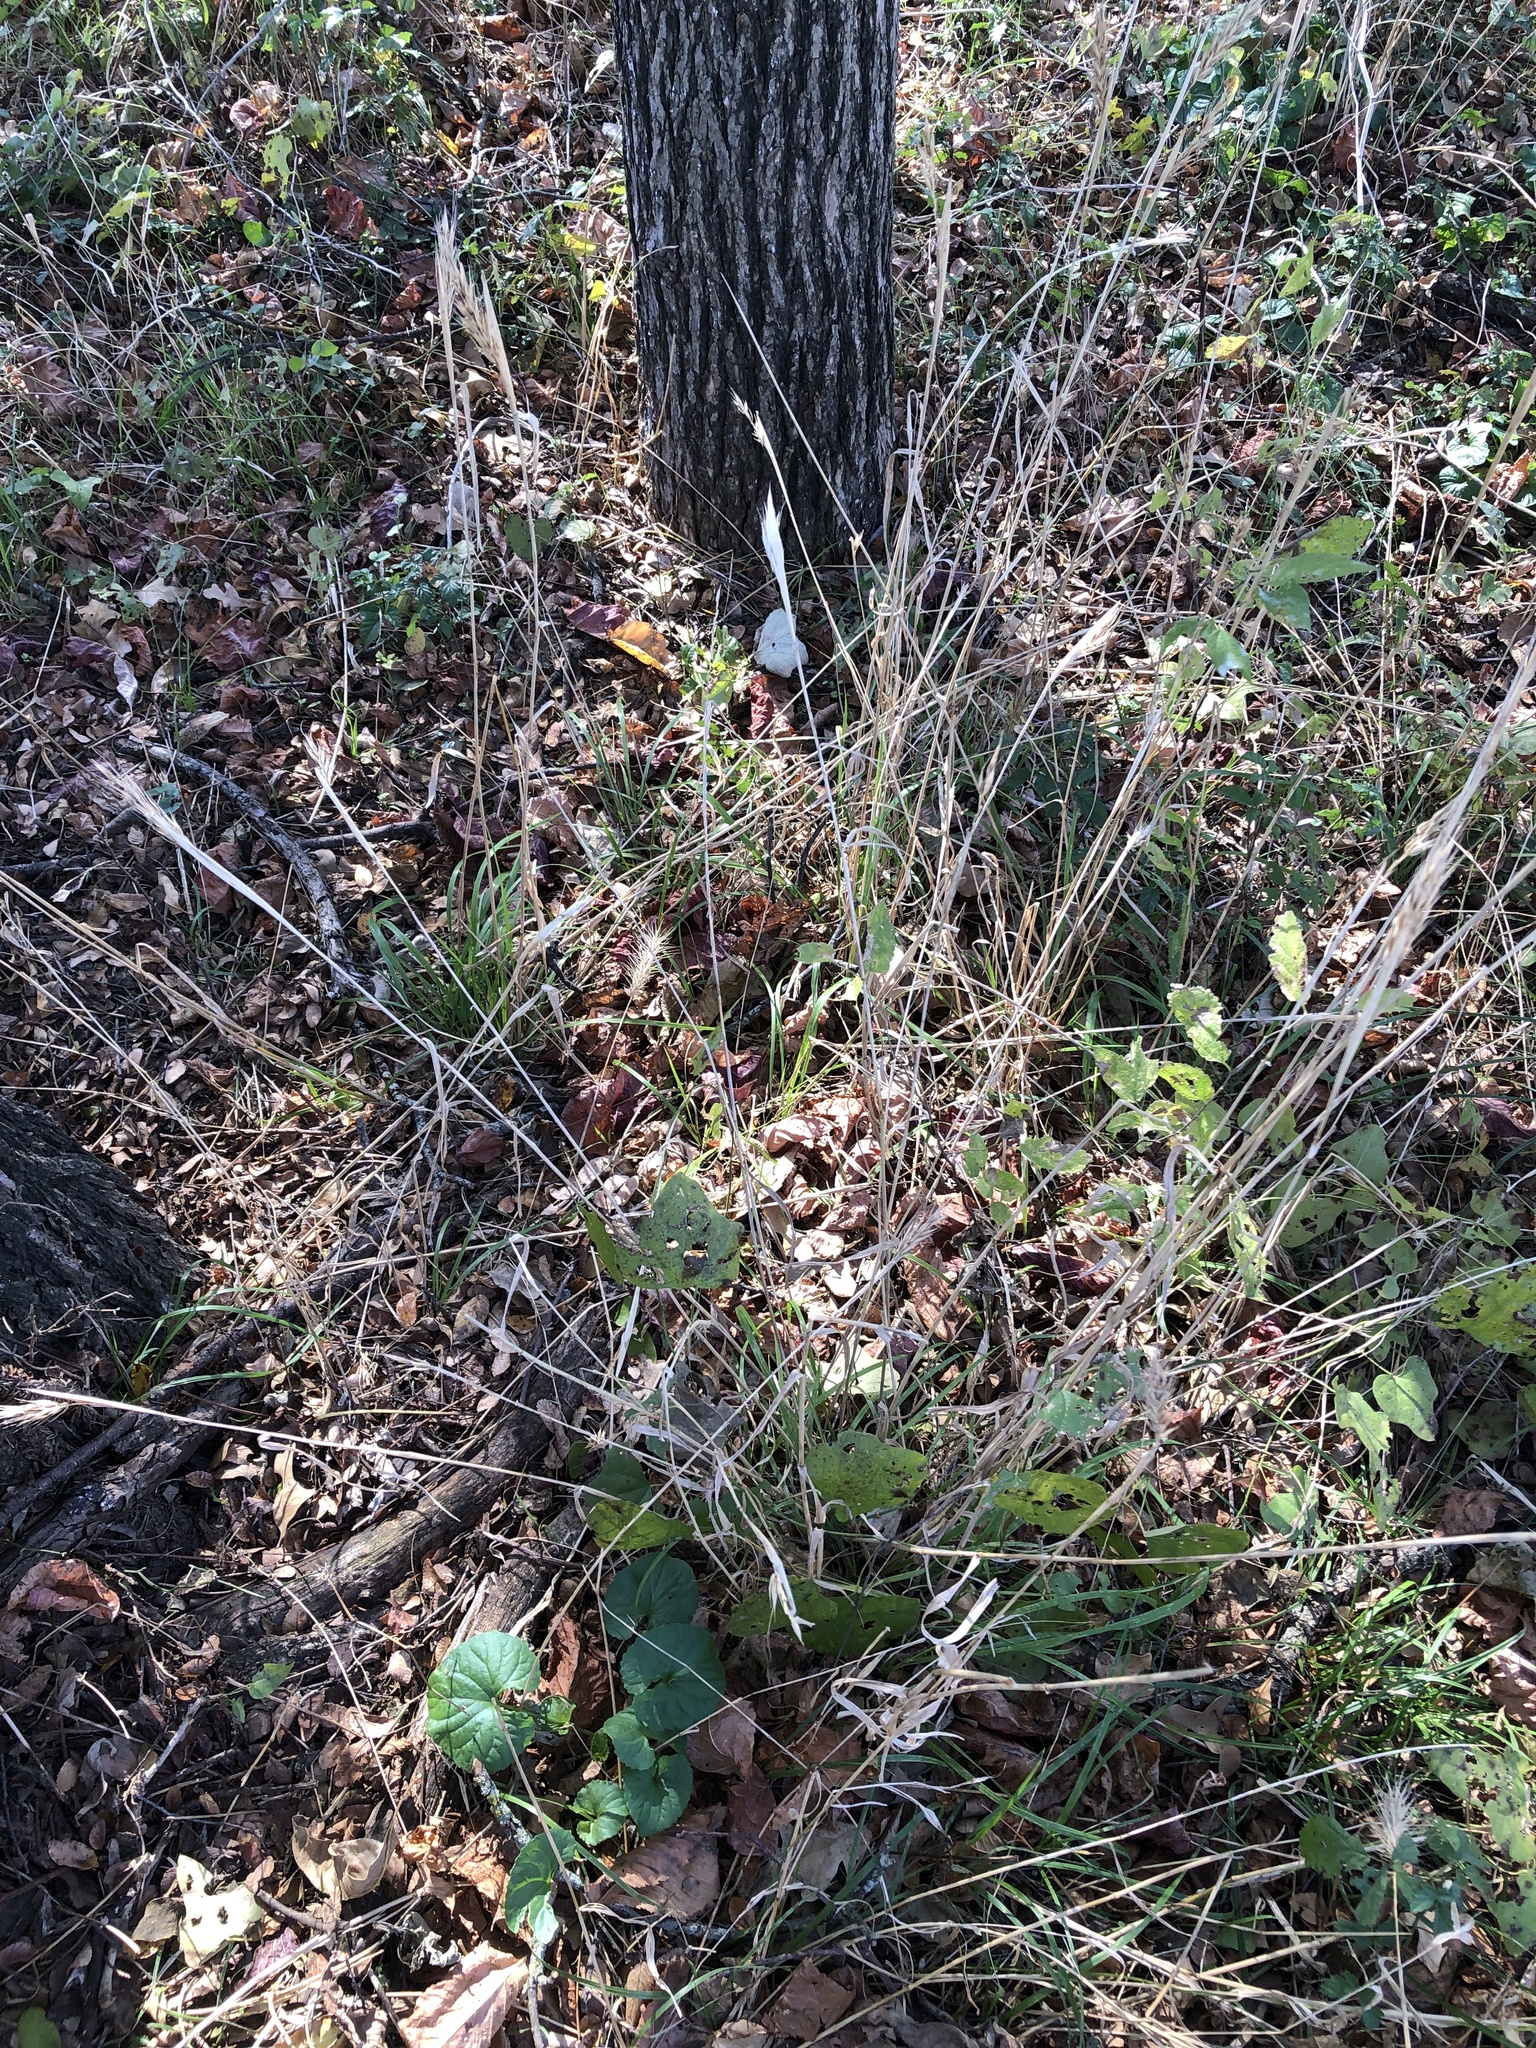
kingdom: Plantae
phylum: Tracheophyta
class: Liliopsida
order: Poales
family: Poaceae
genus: Elymus
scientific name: Elymus virginicus
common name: Common eastern wildrye
